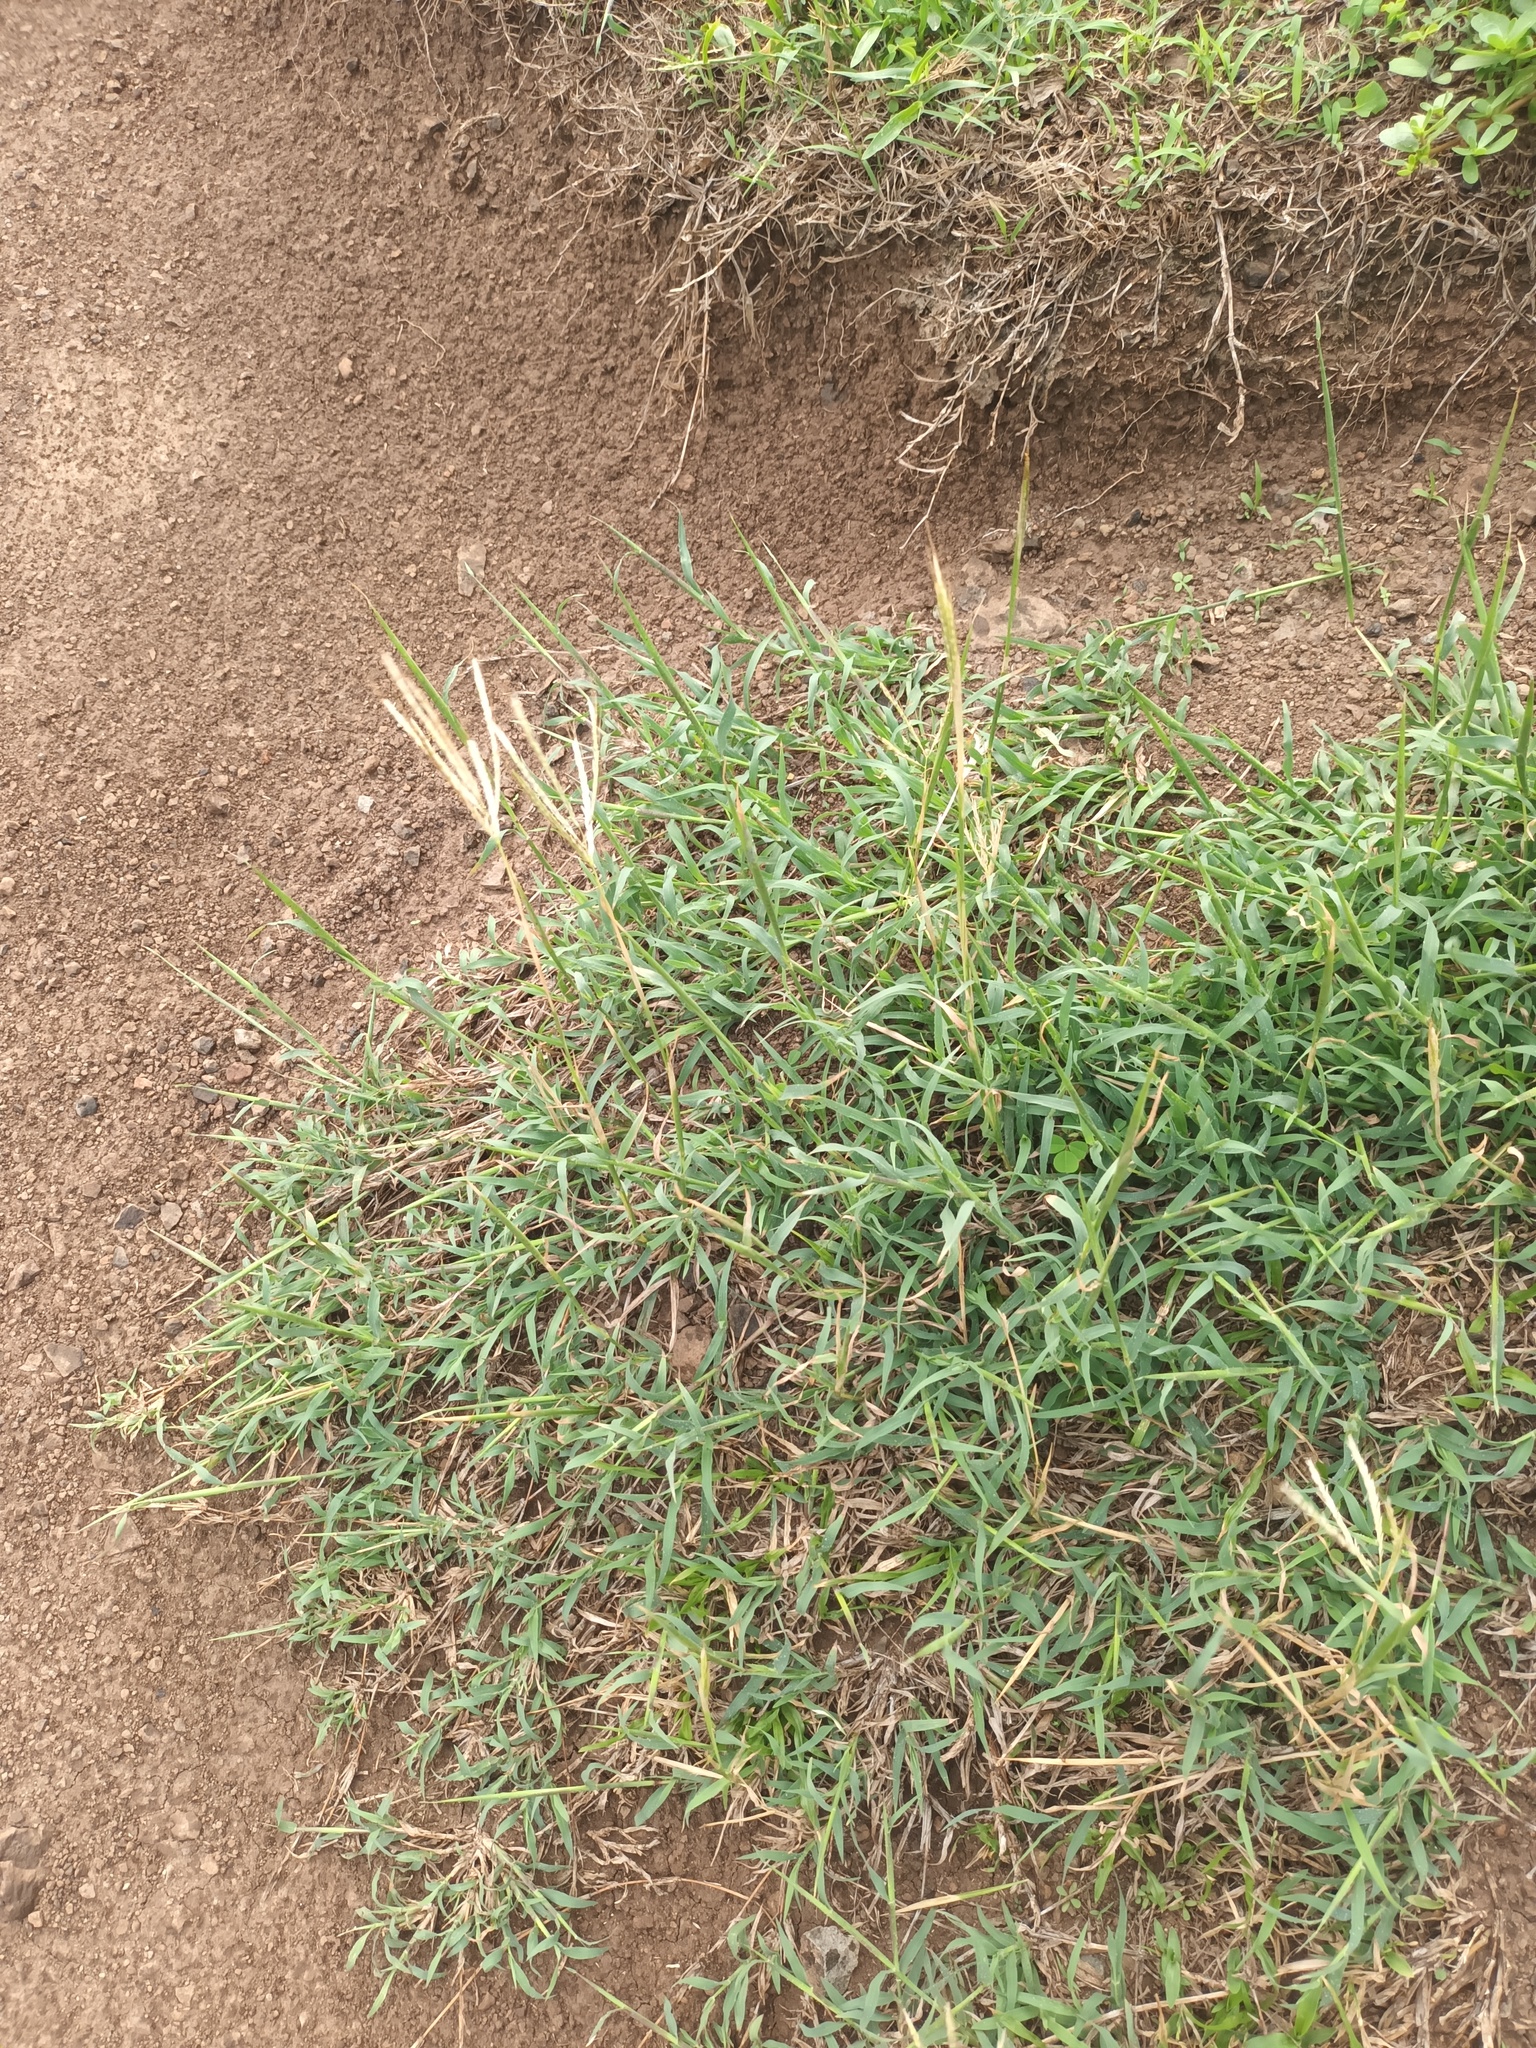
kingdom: Plantae
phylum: Tracheophyta
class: Liliopsida
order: Poales
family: Poaceae
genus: Bothriochloa
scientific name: Bothriochloa pertusa
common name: Pitted beardgrass
